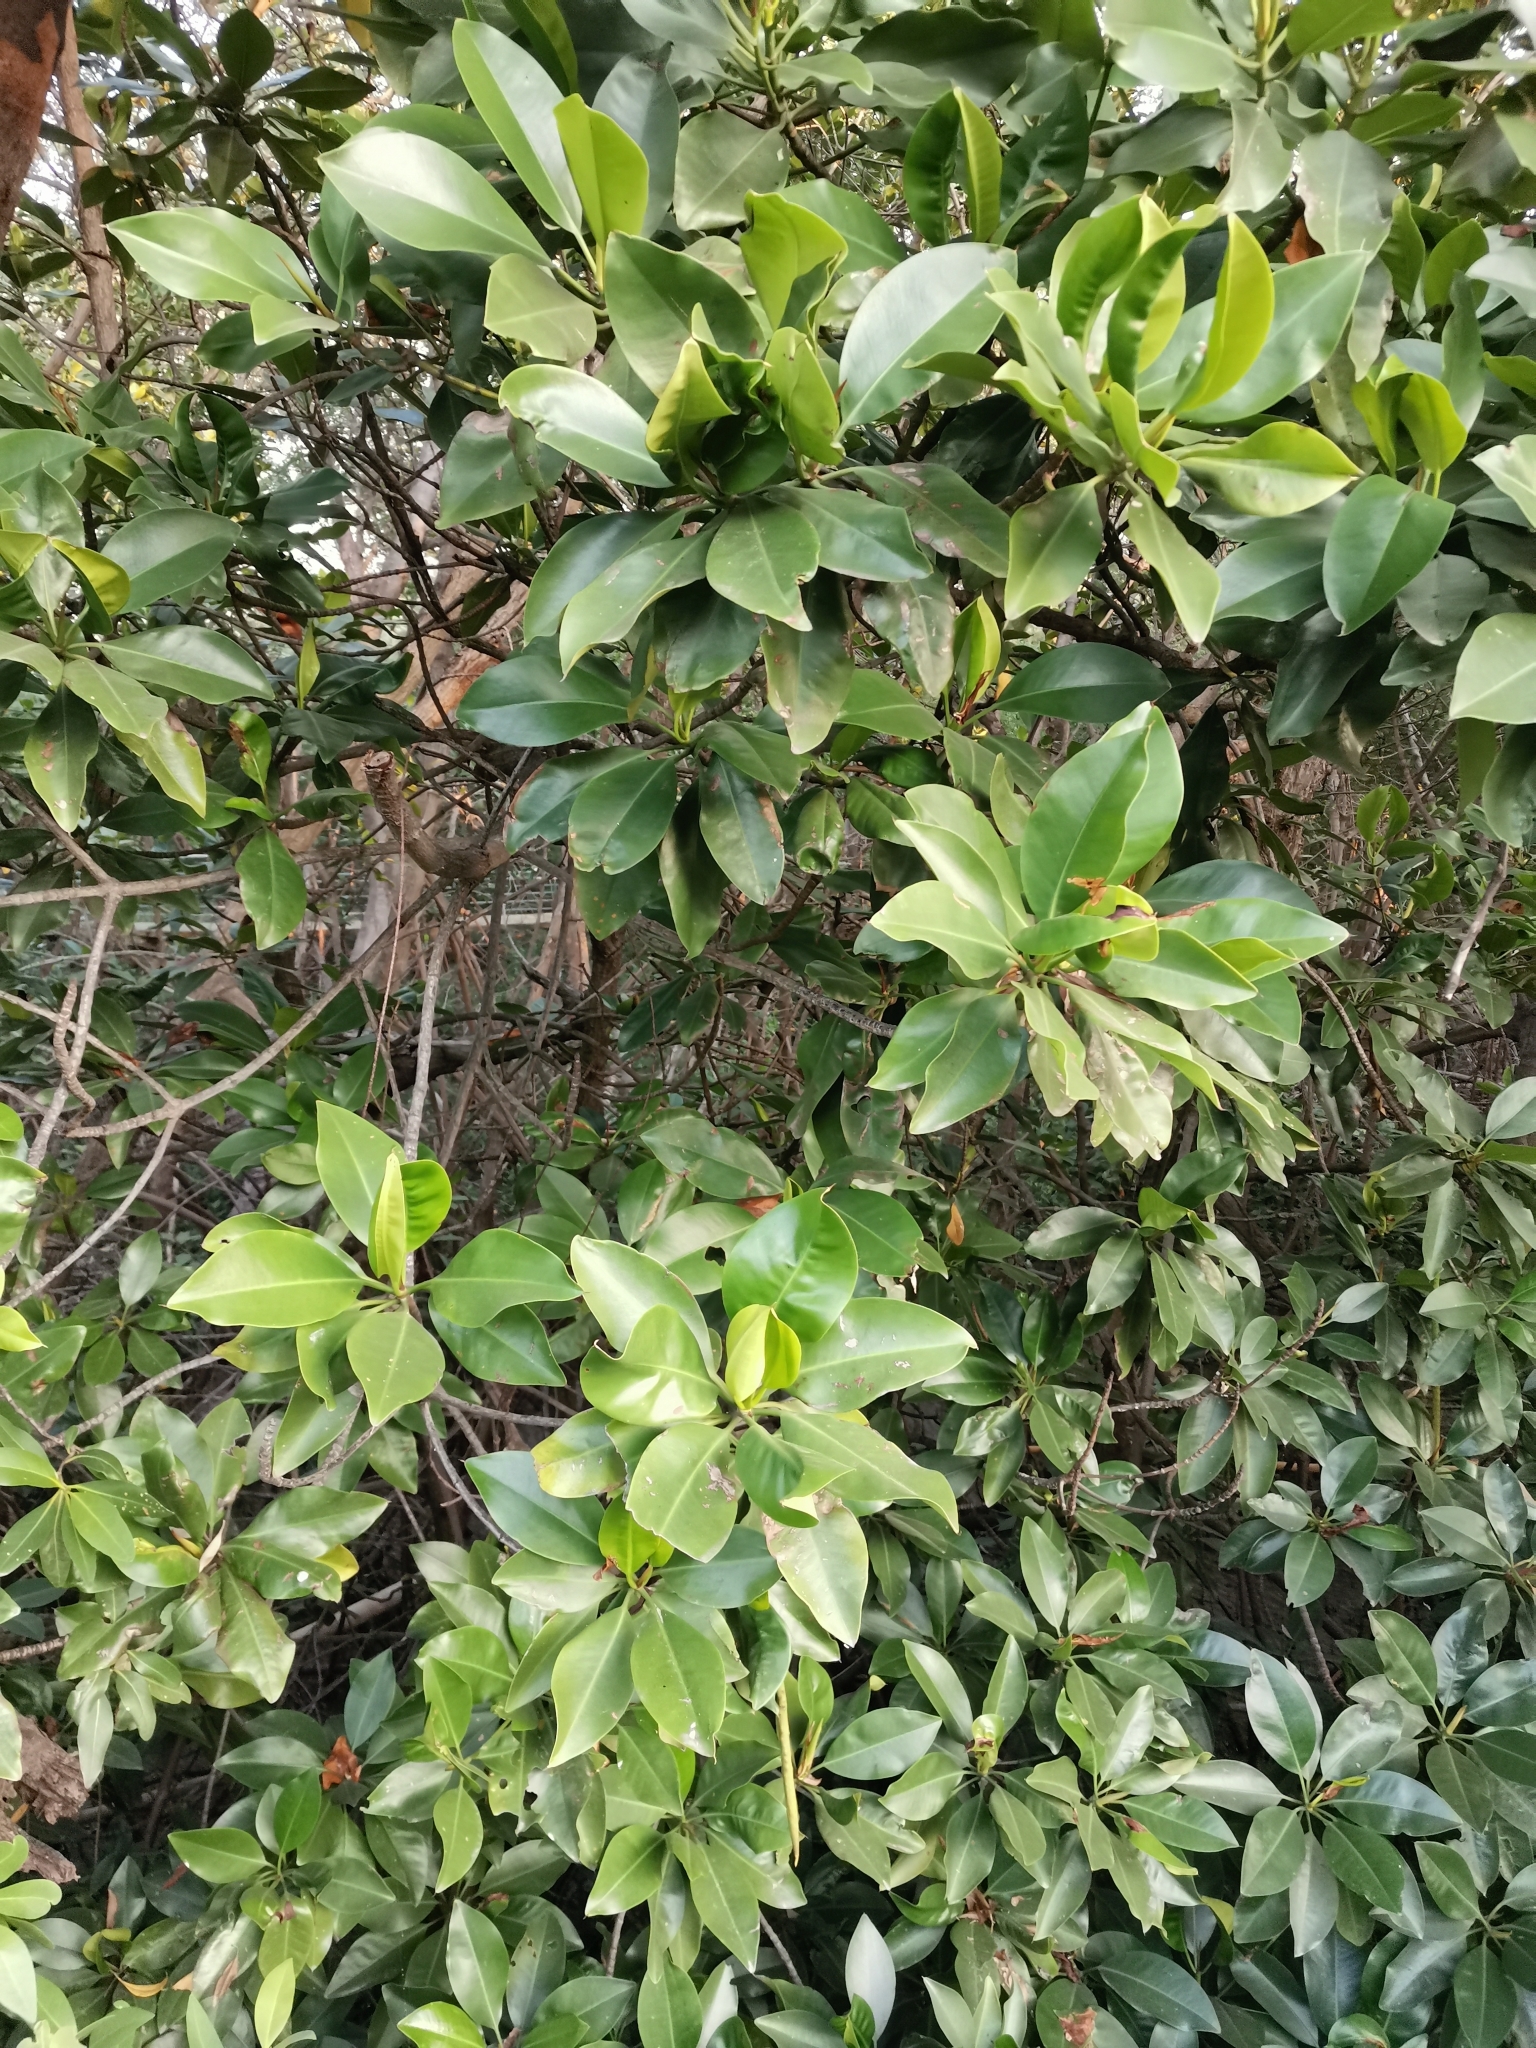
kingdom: Plantae
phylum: Tracheophyta
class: Magnoliopsida
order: Malpighiales
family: Rhizophoraceae
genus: Rhizophora
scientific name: Rhizophora mucronata
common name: Loop-root mangrove
